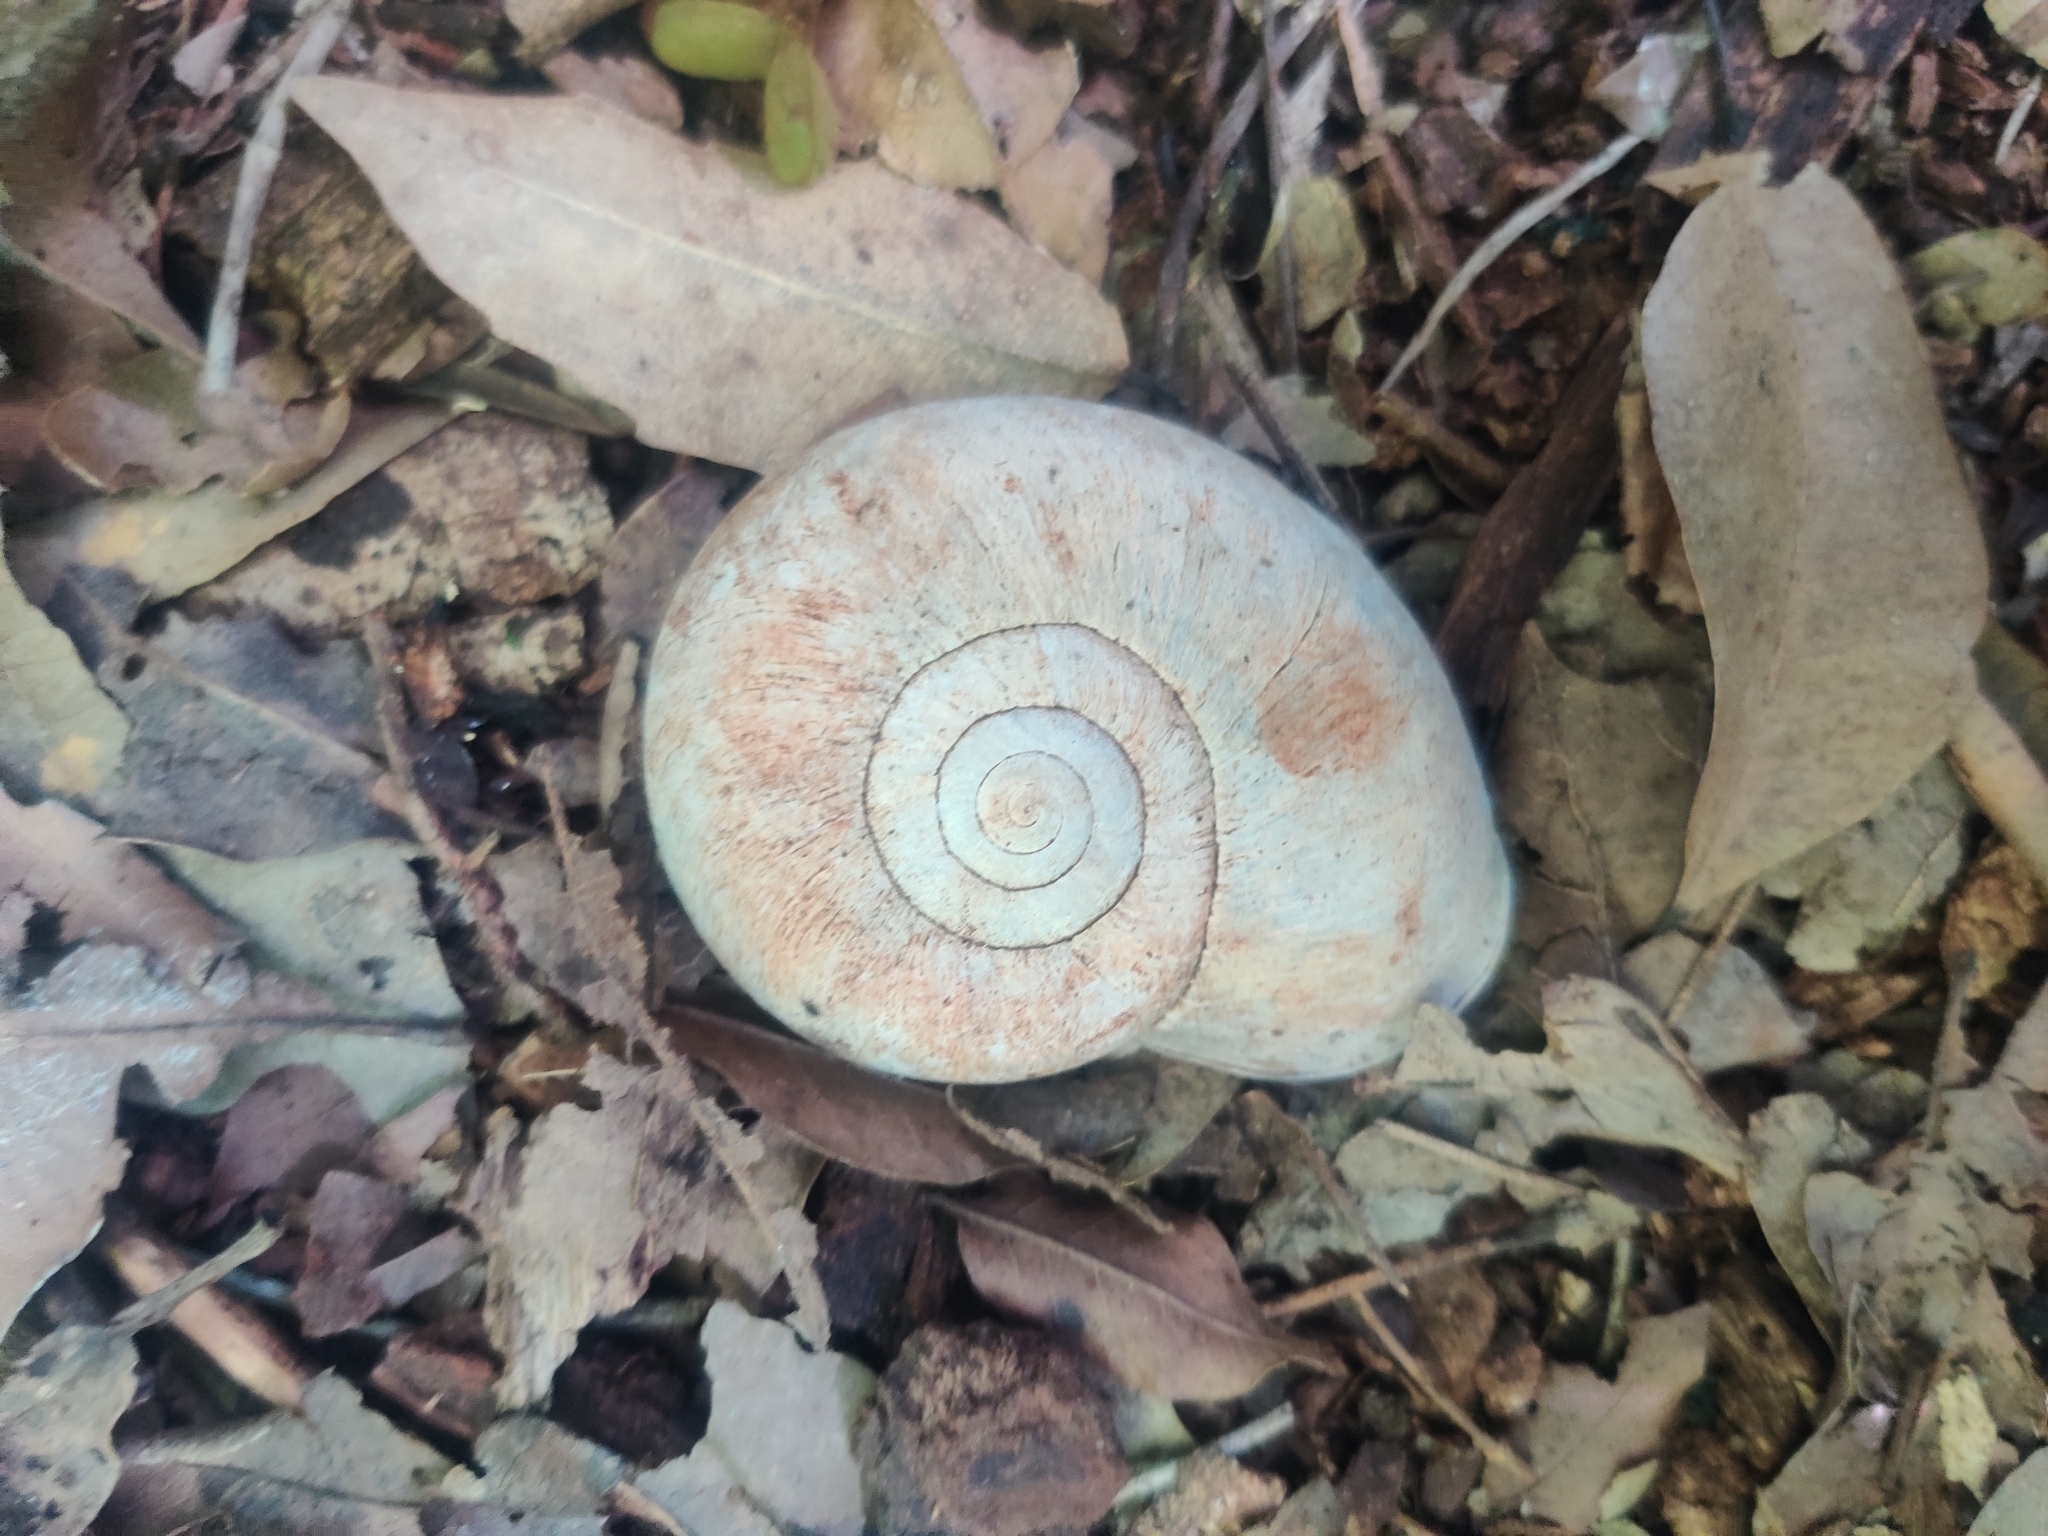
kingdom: Animalia
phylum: Mollusca
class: Gastropoda
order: Stylommatophora
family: Caryodidae
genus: Pedinogyra
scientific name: Pedinogyra hayii
